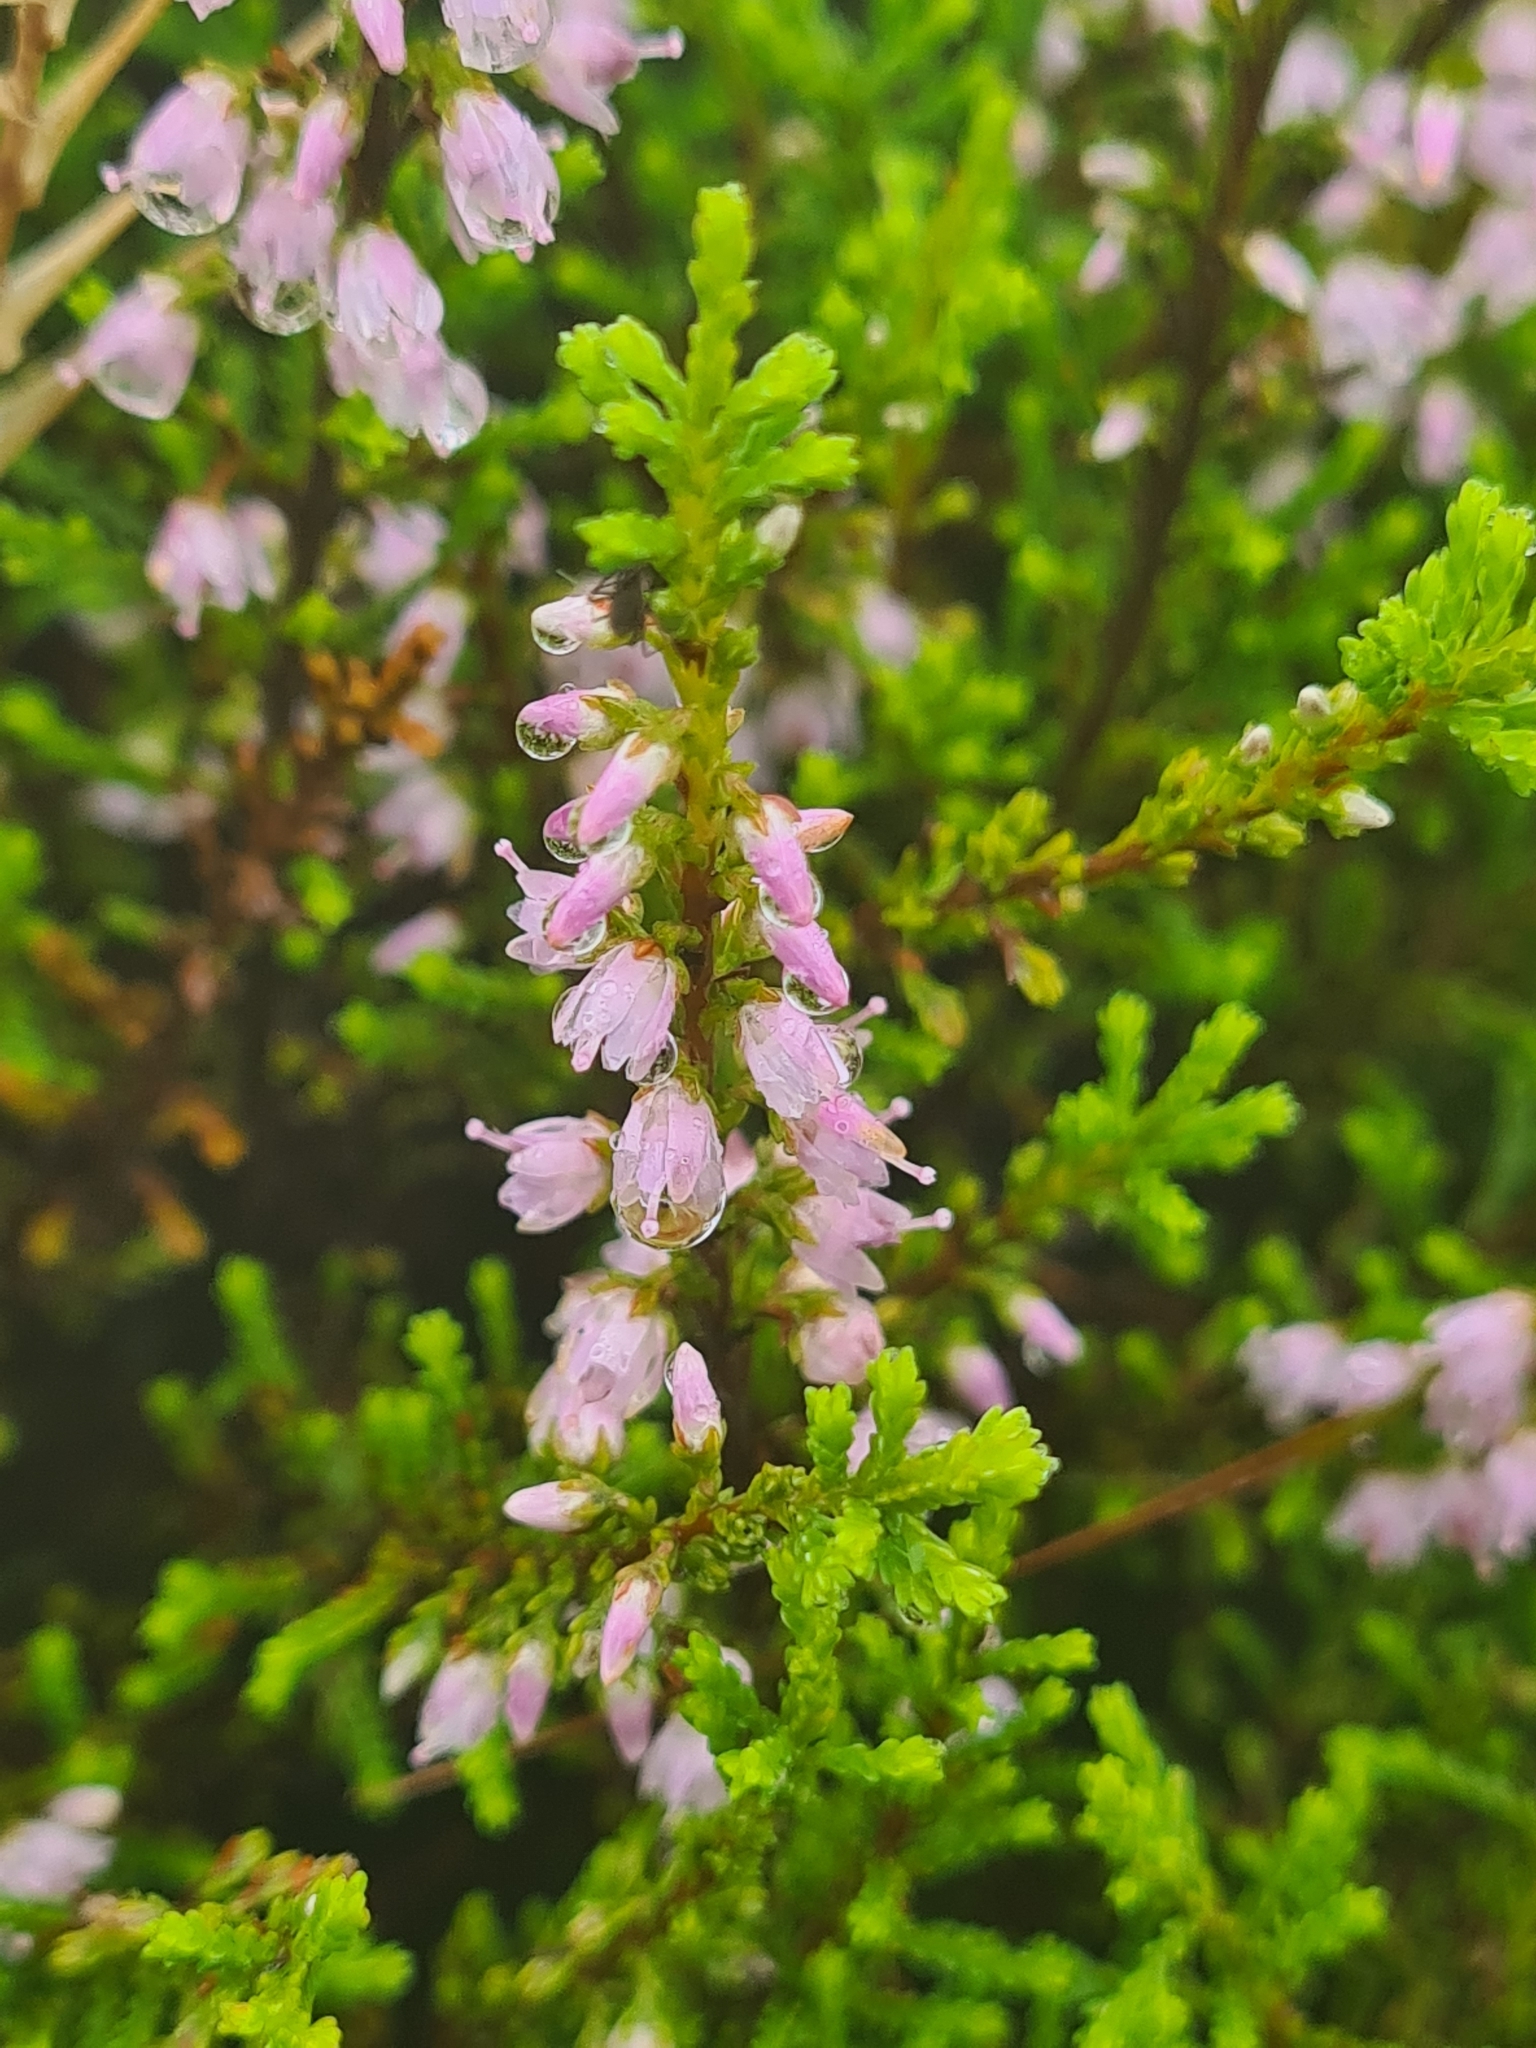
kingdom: Plantae
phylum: Tracheophyta
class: Magnoliopsida
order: Ericales
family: Ericaceae
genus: Calluna
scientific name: Calluna vulgaris
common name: Heather
